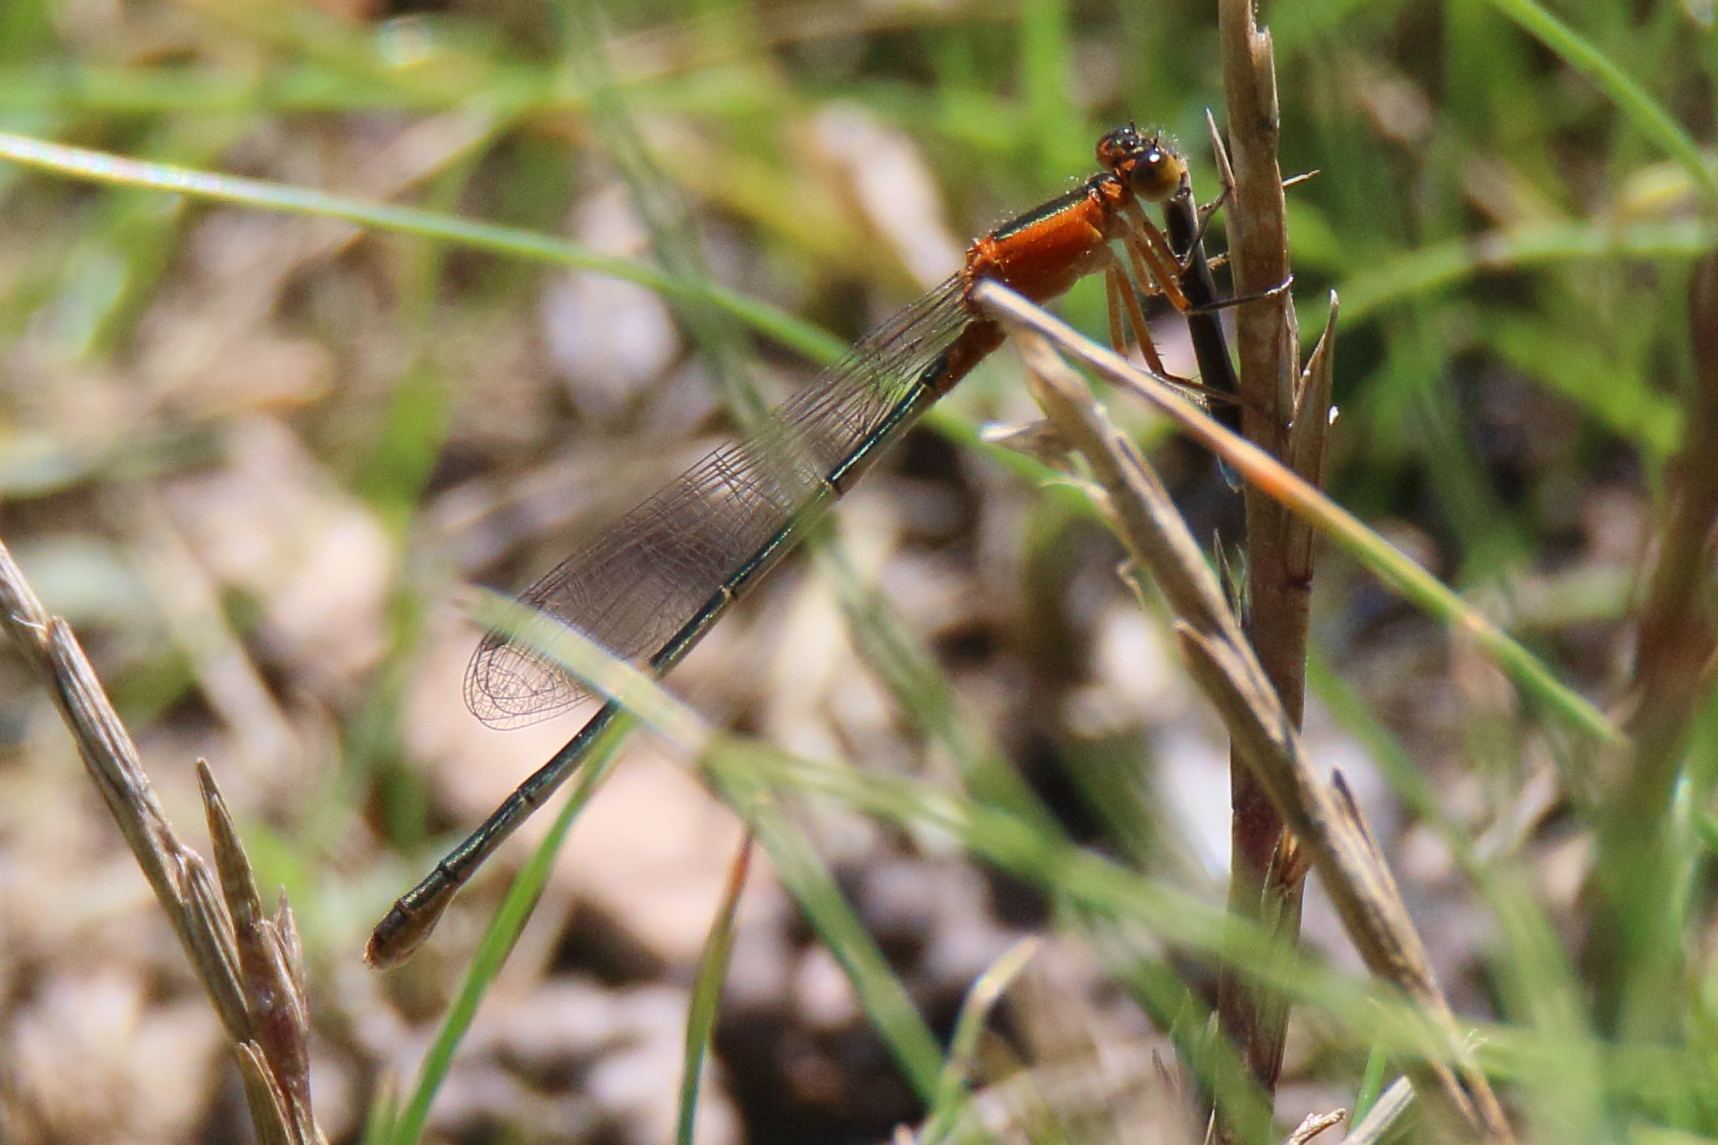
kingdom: Animalia
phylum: Arthropoda
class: Insecta
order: Odonata
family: Coenagrionidae
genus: Ischnura
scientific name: Ischnura ramburii
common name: Rambur's forktail
